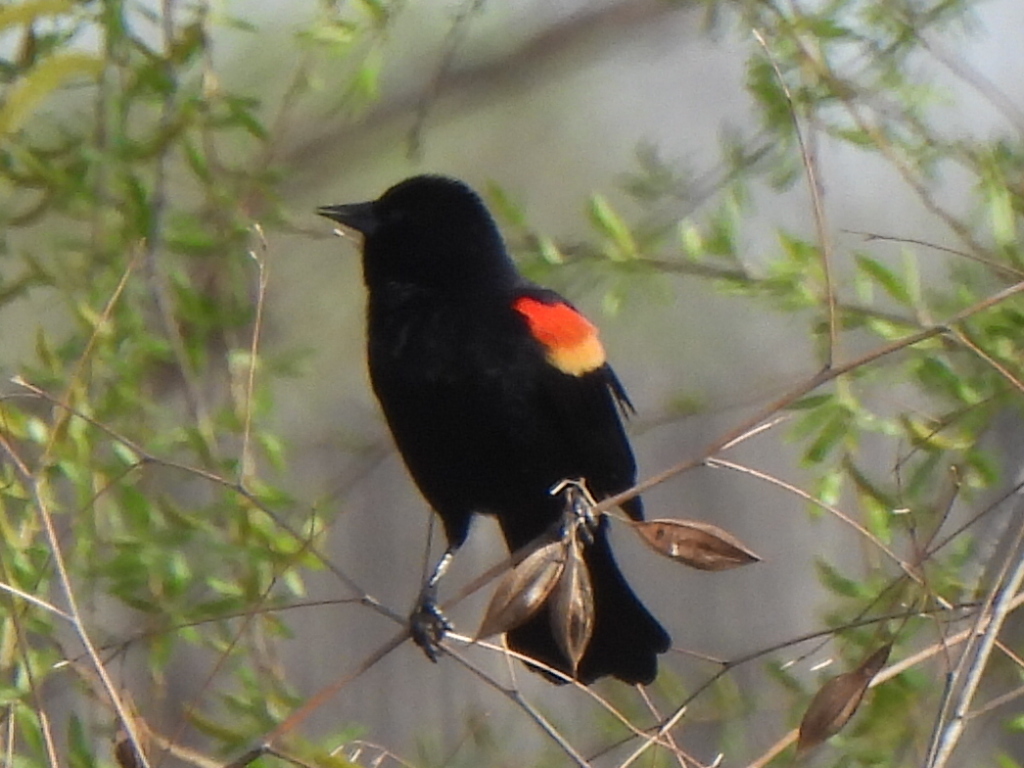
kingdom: Animalia
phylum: Chordata
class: Aves
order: Passeriformes
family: Icteridae
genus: Agelaius
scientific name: Agelaius phoeniceus
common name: Red-winged blackbird
